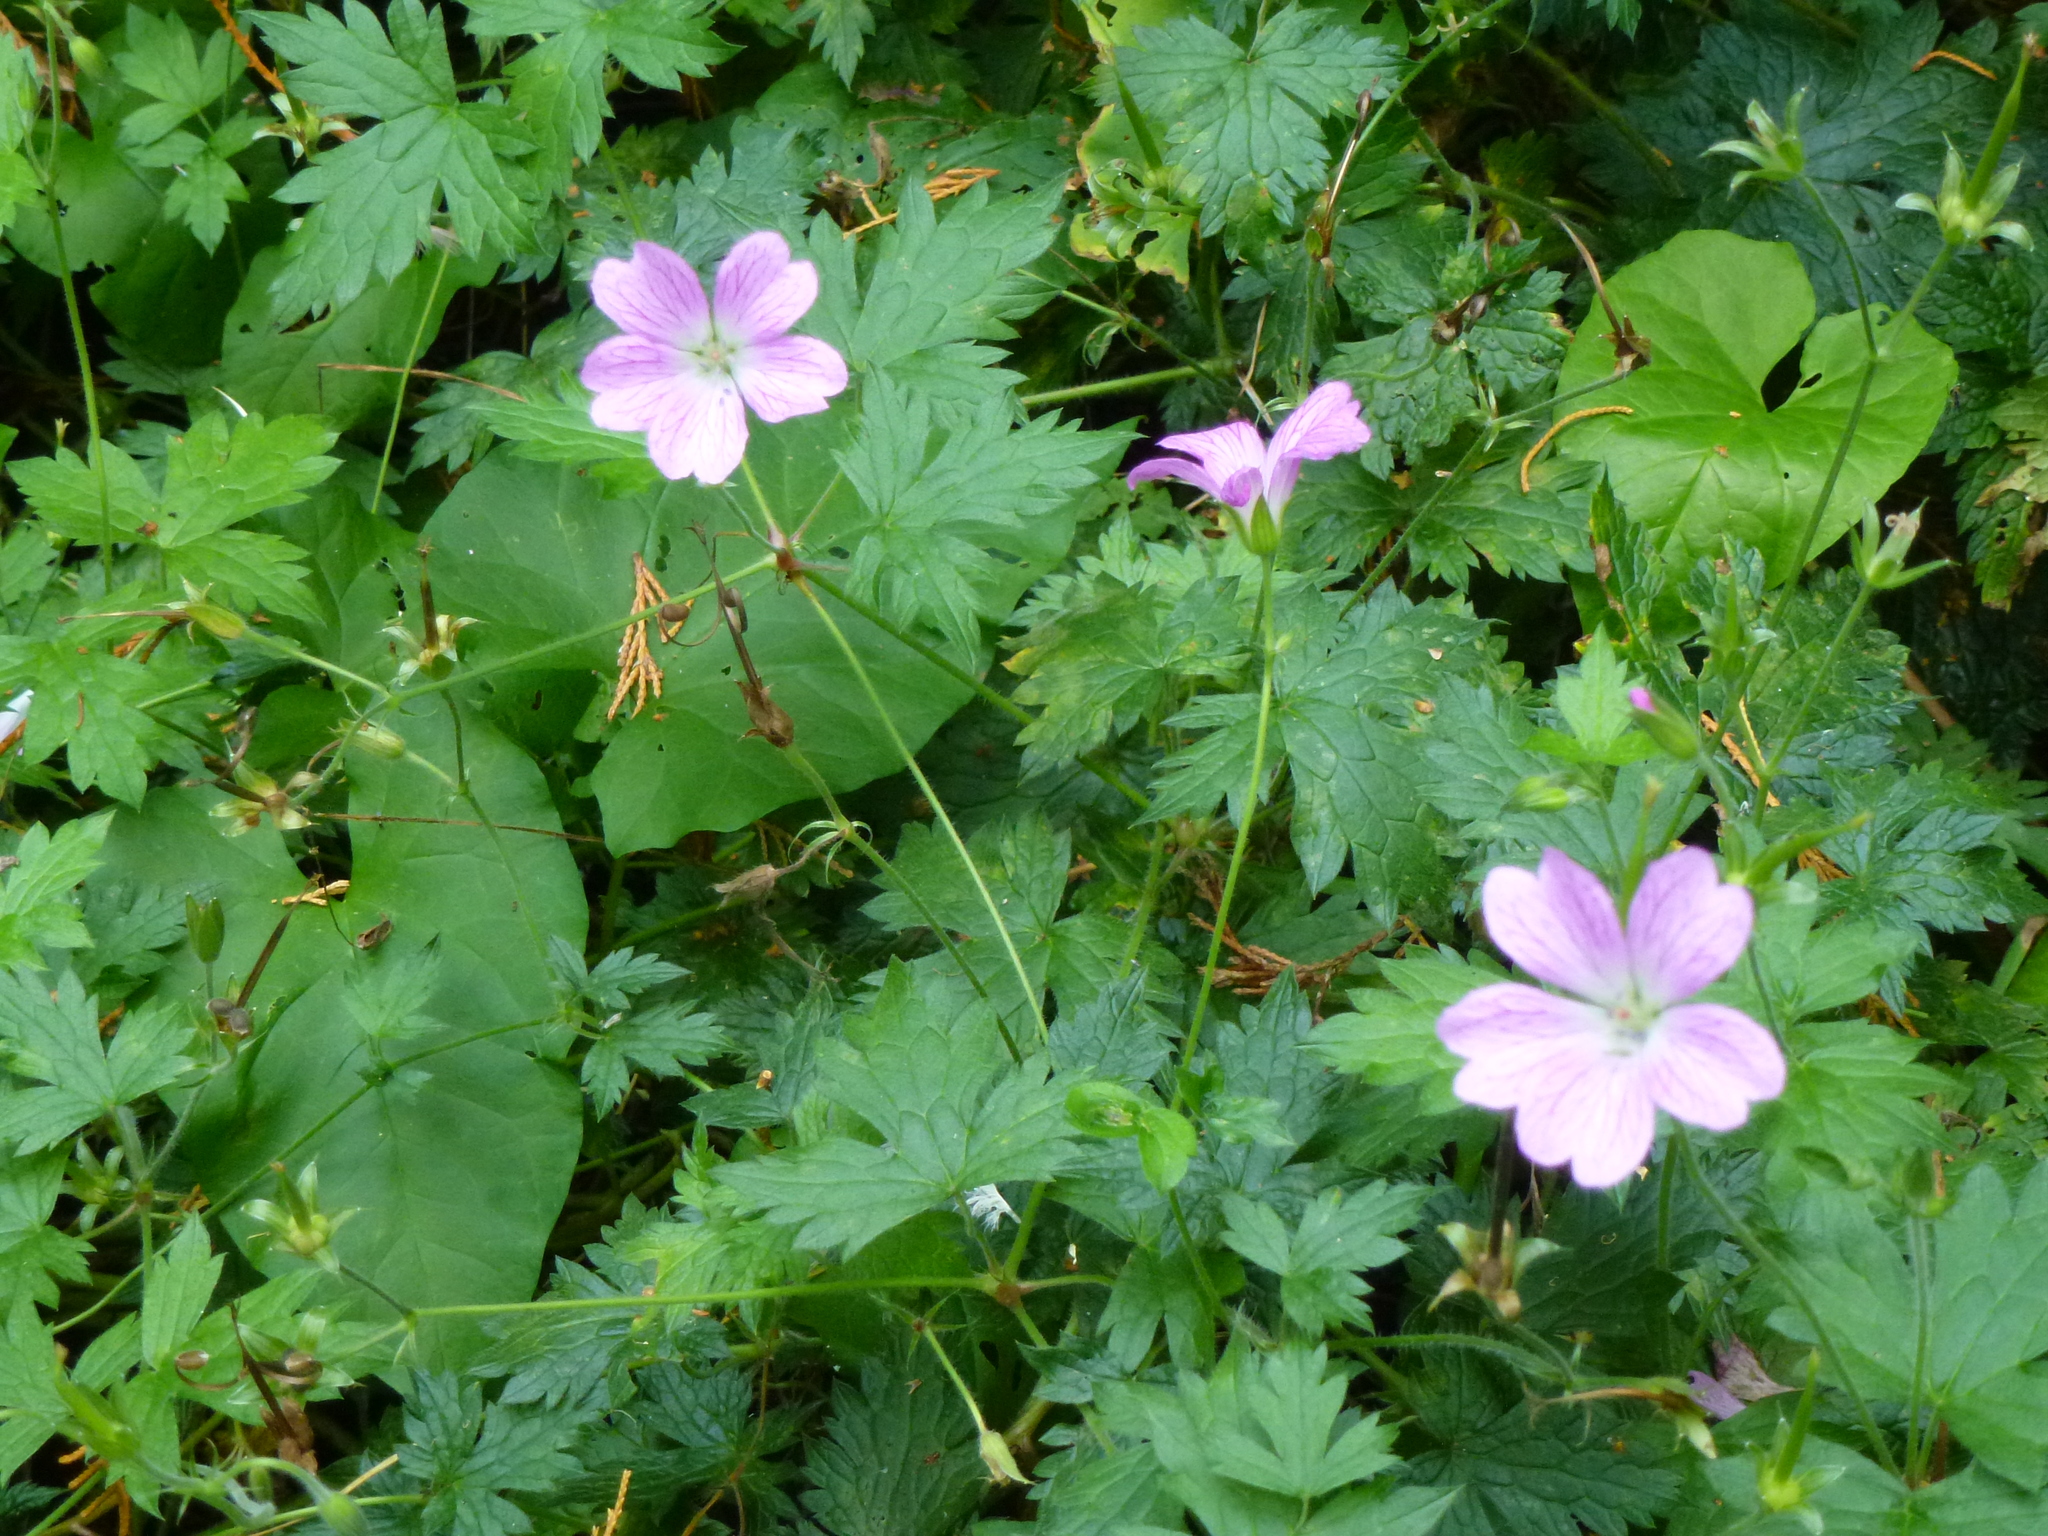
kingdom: Plantae
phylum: Tracheophyta
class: Magnoliopsida
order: Geraniales
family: Geraniaceae
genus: Geranium
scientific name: Geranium oxonianum
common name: Druce's crane's-bill
